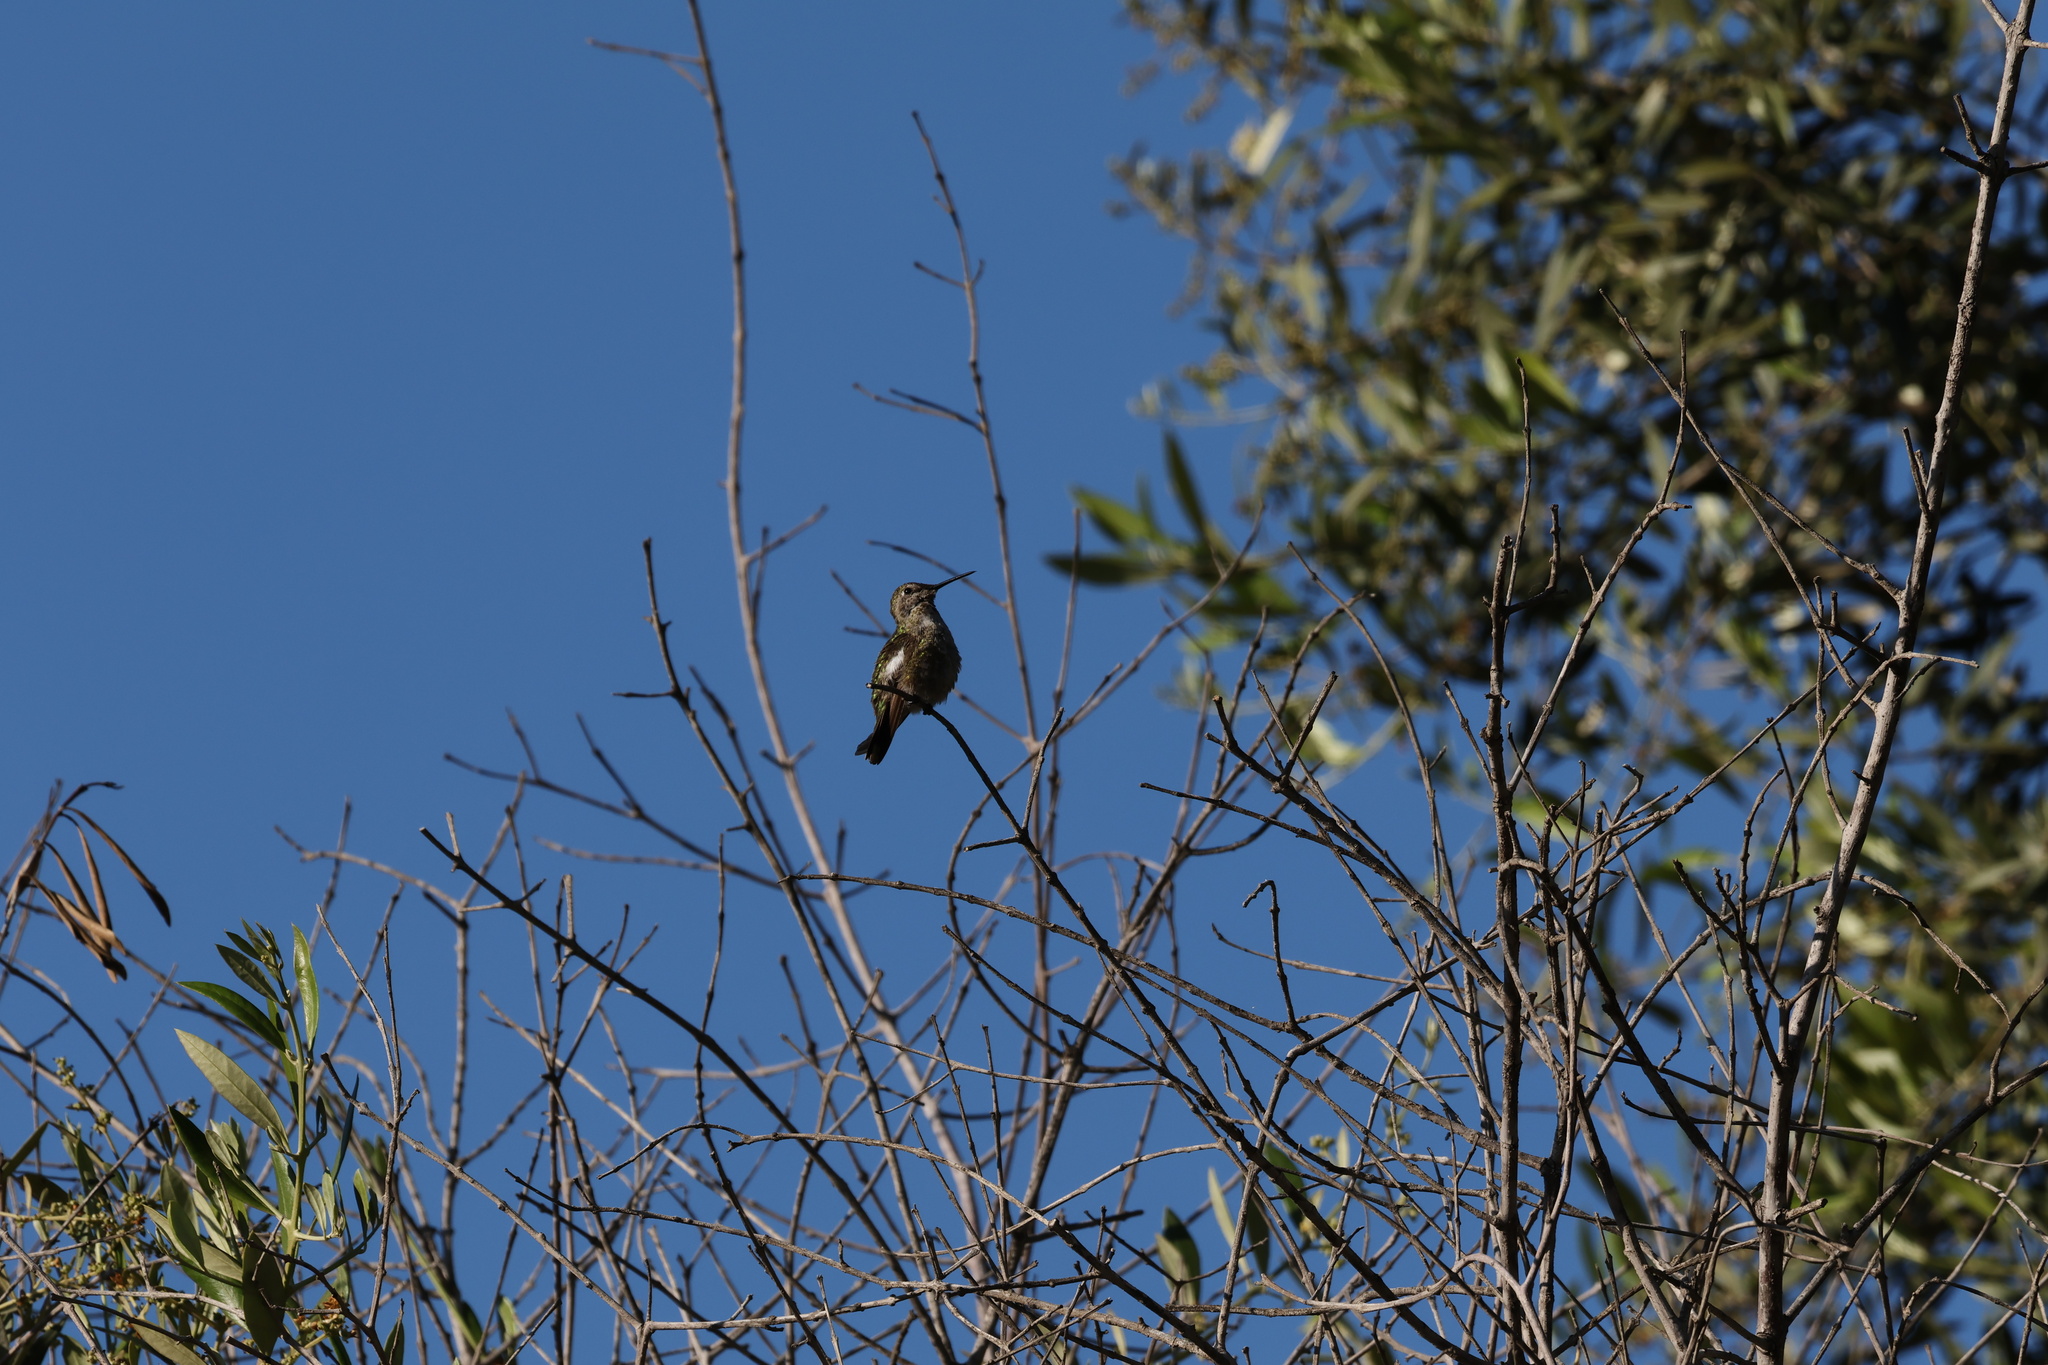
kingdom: Animalia
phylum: Chordata
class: Aves
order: Apodiformes
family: Trochilidae
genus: Calypte
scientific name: Calypte anna
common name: Anna's hummingbird
